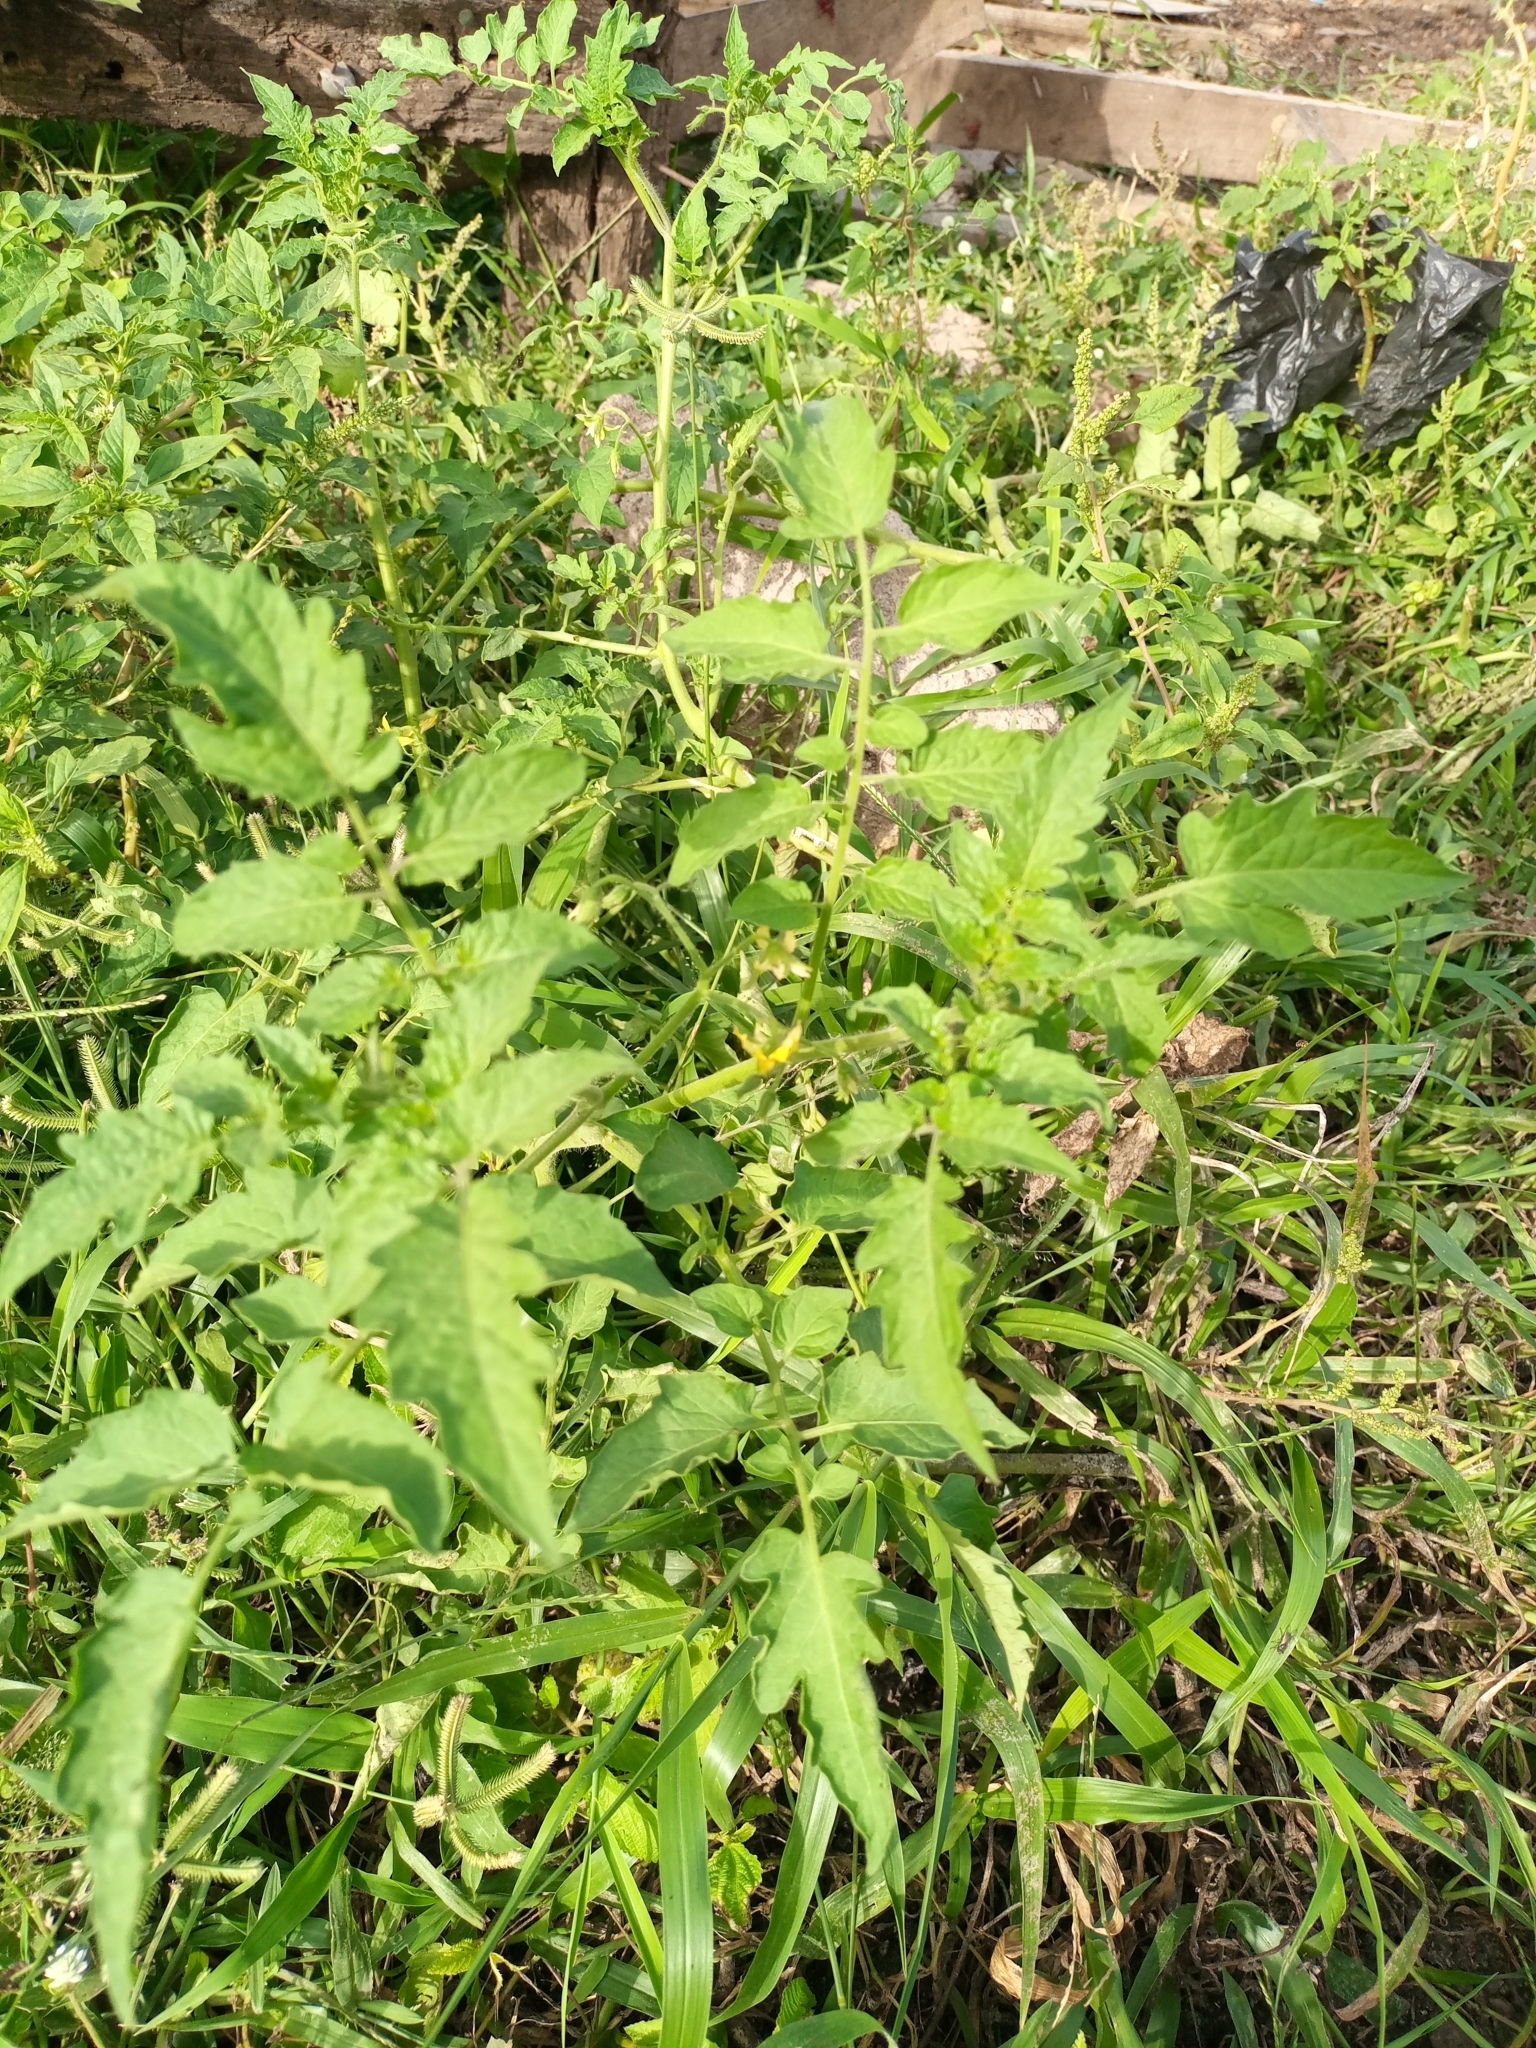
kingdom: Plantae
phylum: Tracheophyta
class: Magnoliopsida
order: Solanales
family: Solanaceae
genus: Solanum
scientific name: Solanum lycopersicum
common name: Garden tomato
